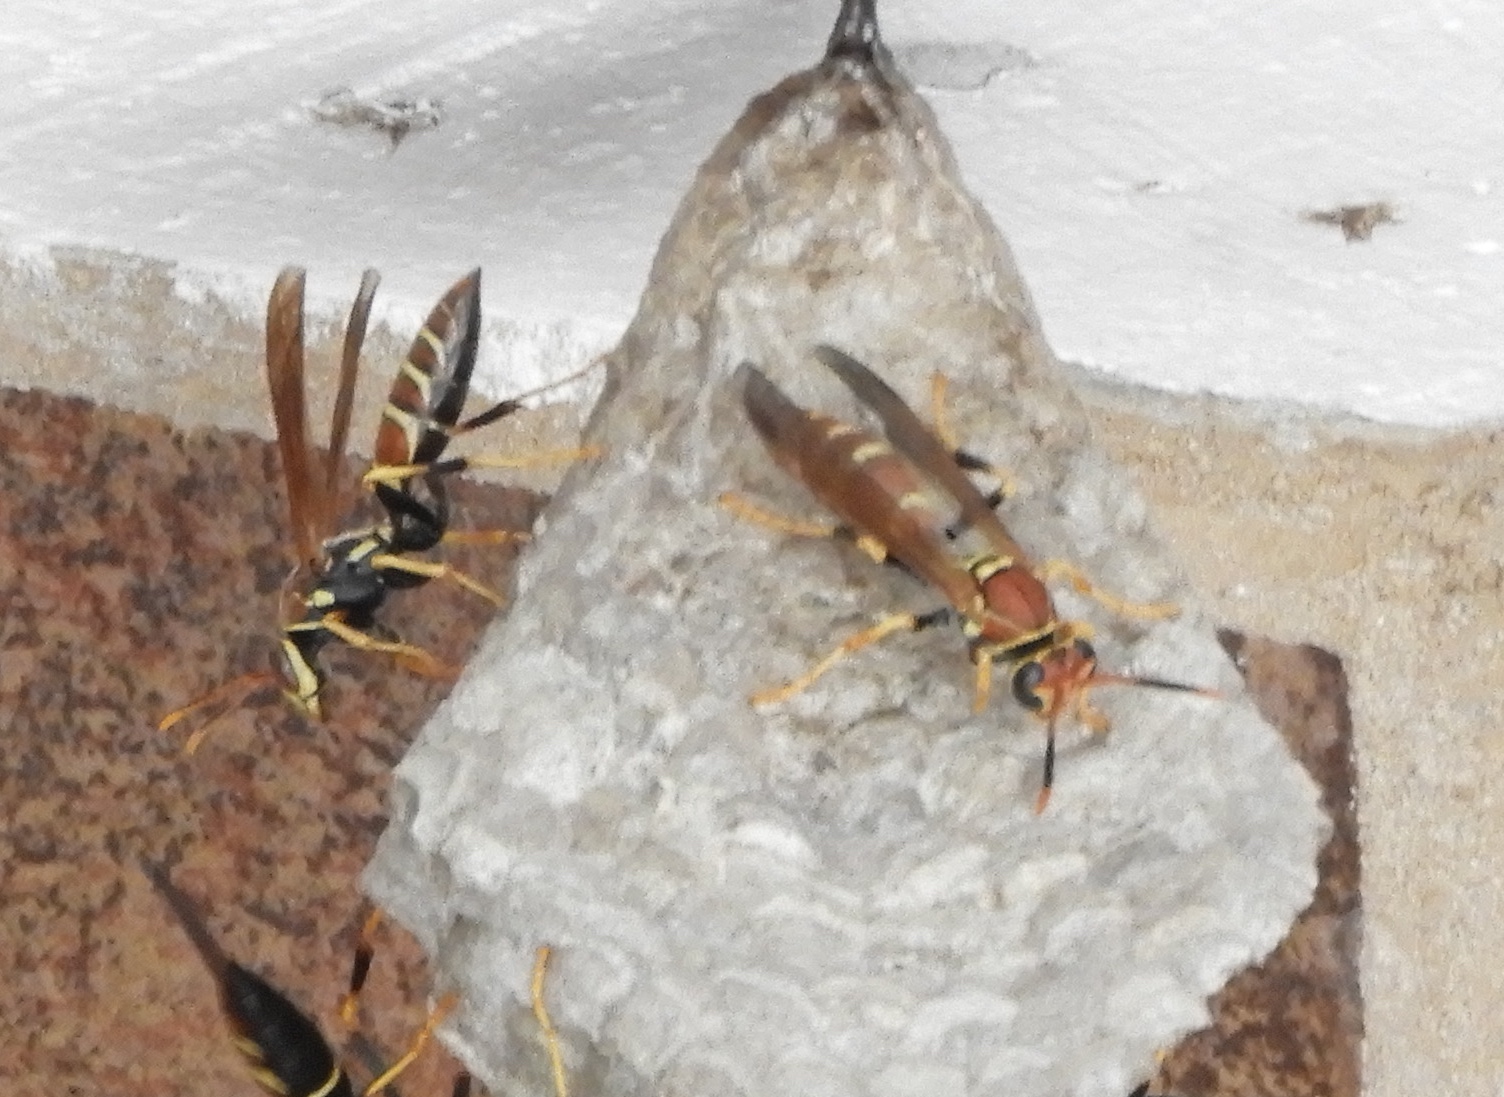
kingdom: Animalia
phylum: Arthropoda
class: Insecta
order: Hymenoptera
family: Eumenidae
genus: Polistes
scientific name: Polistes instabilis
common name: Unstable paper wasp
